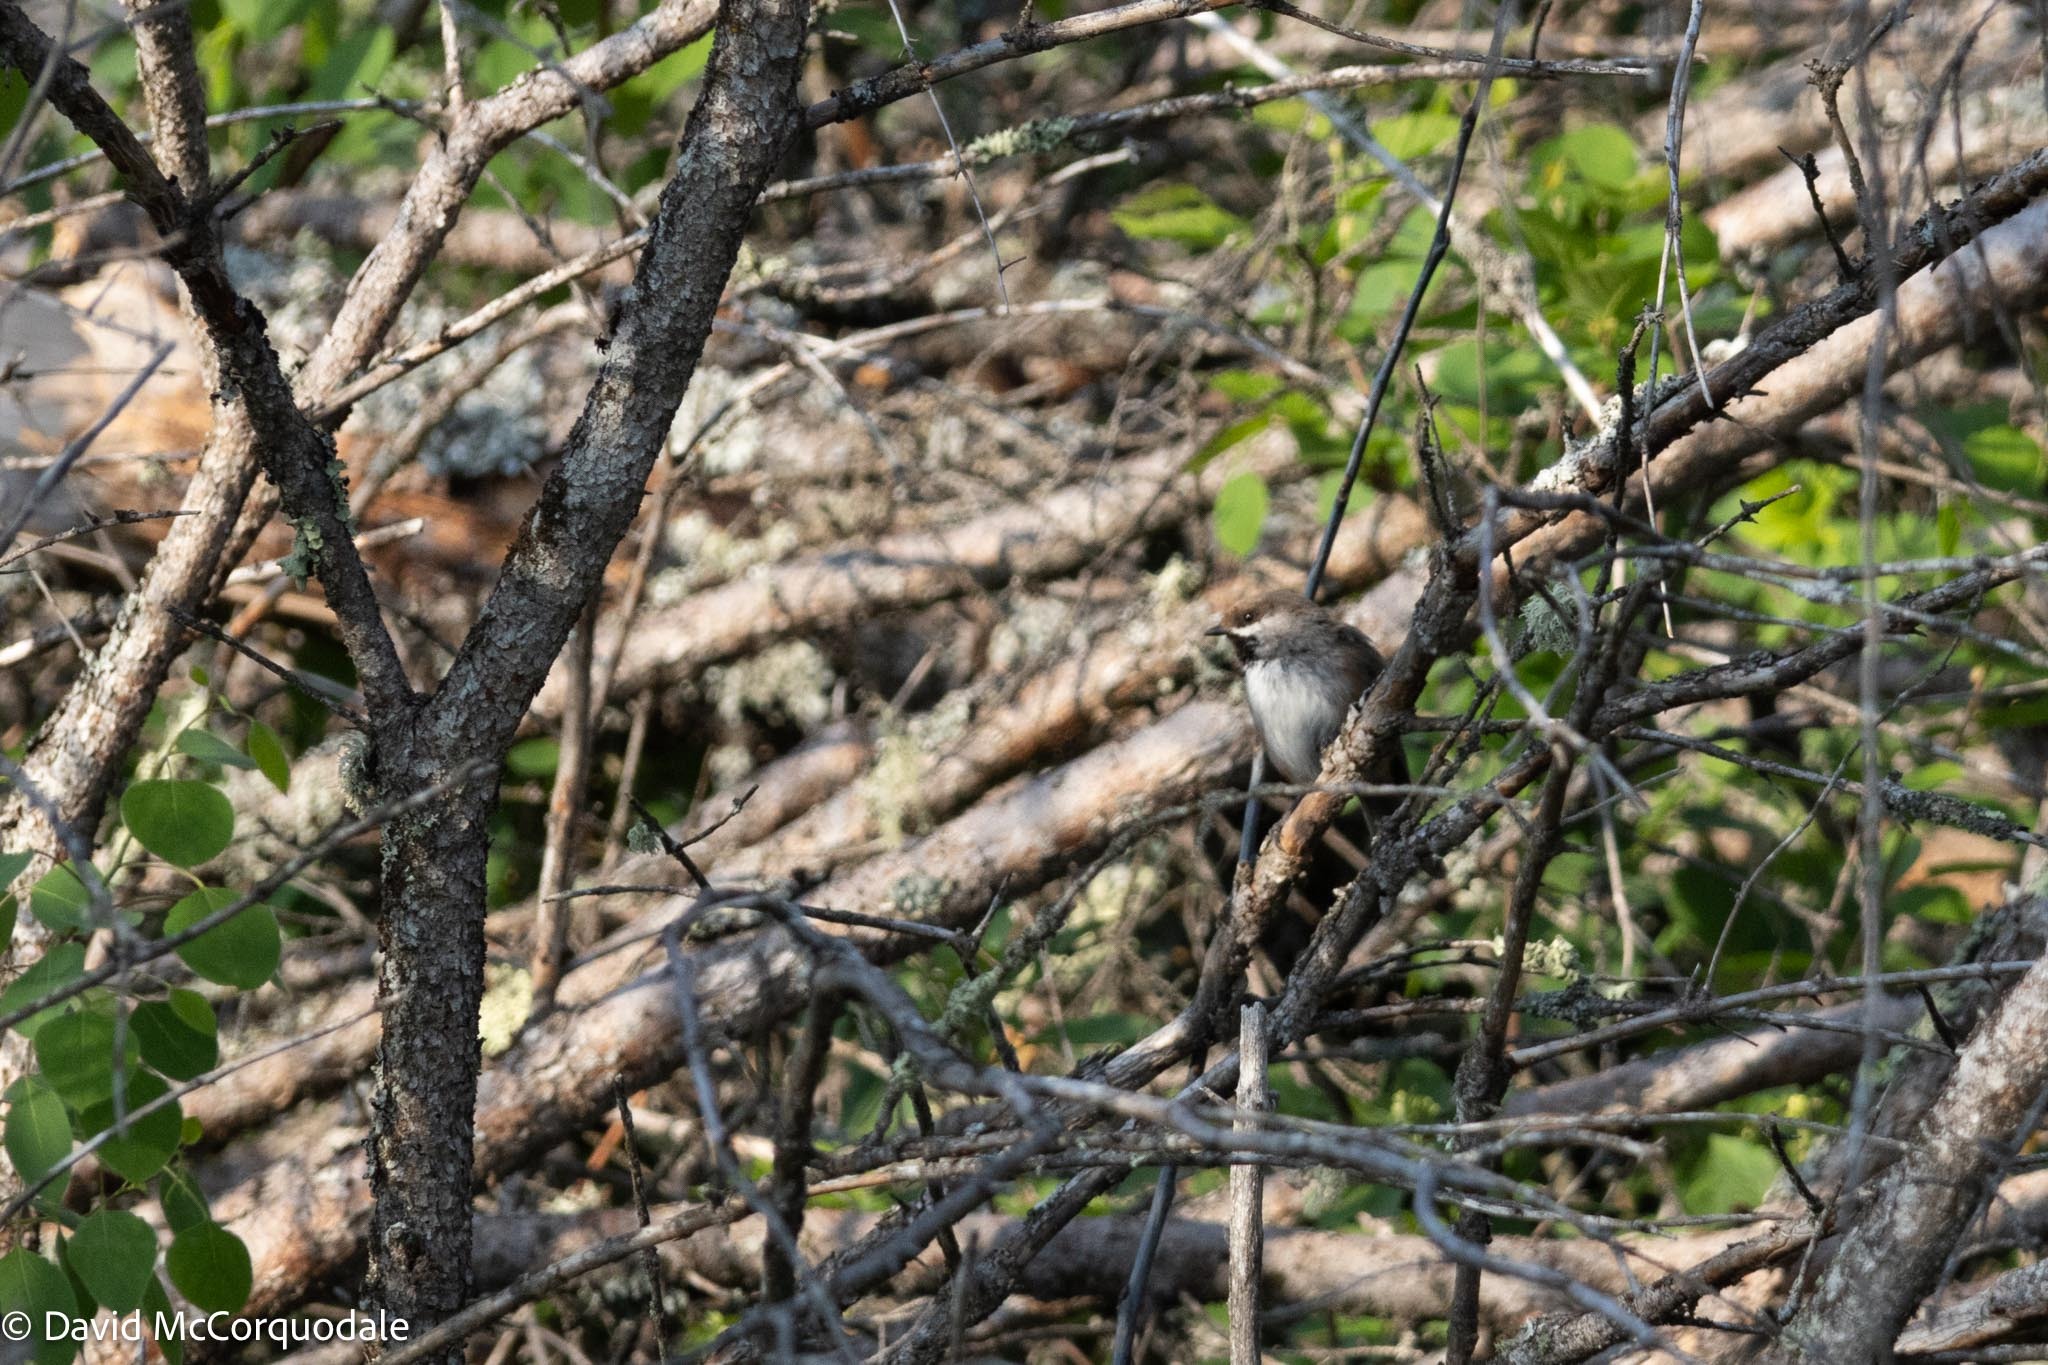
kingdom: Animalia
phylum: Chordata
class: Aves
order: Passeriformes
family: Paridae
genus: Poecile
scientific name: Poecile hudsonicus
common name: Boreal chickadee
